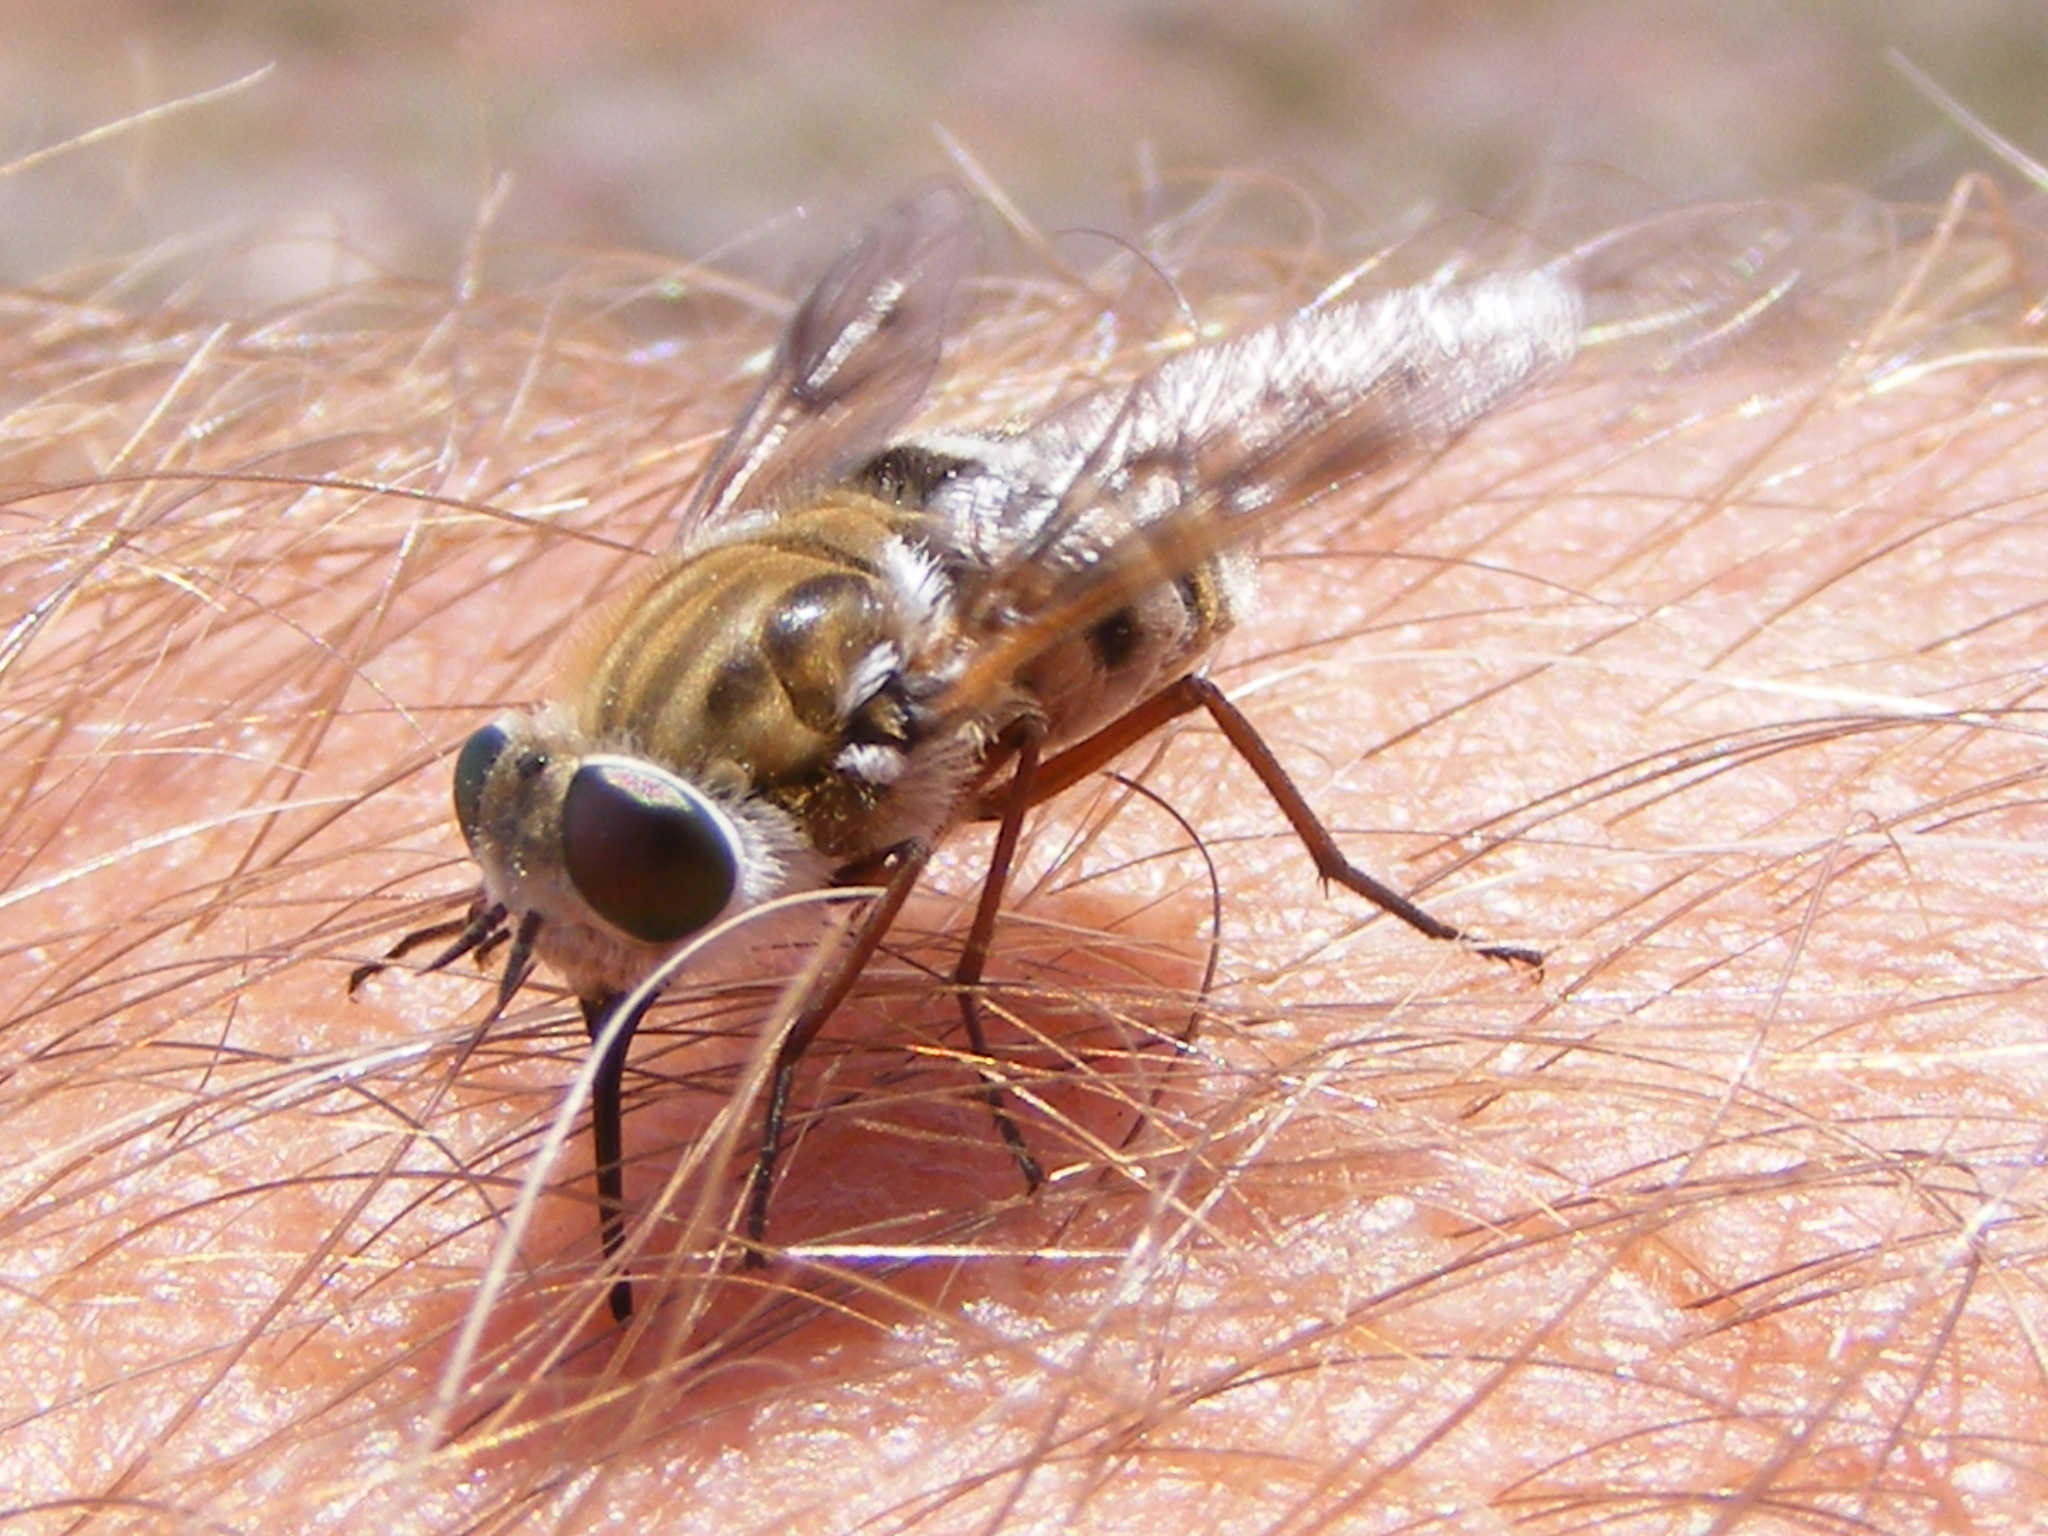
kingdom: Animalia
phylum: Arthropoda
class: Insecta
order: Diptera
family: Tabanidae
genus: Philoliche
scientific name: Philoliche alternans
